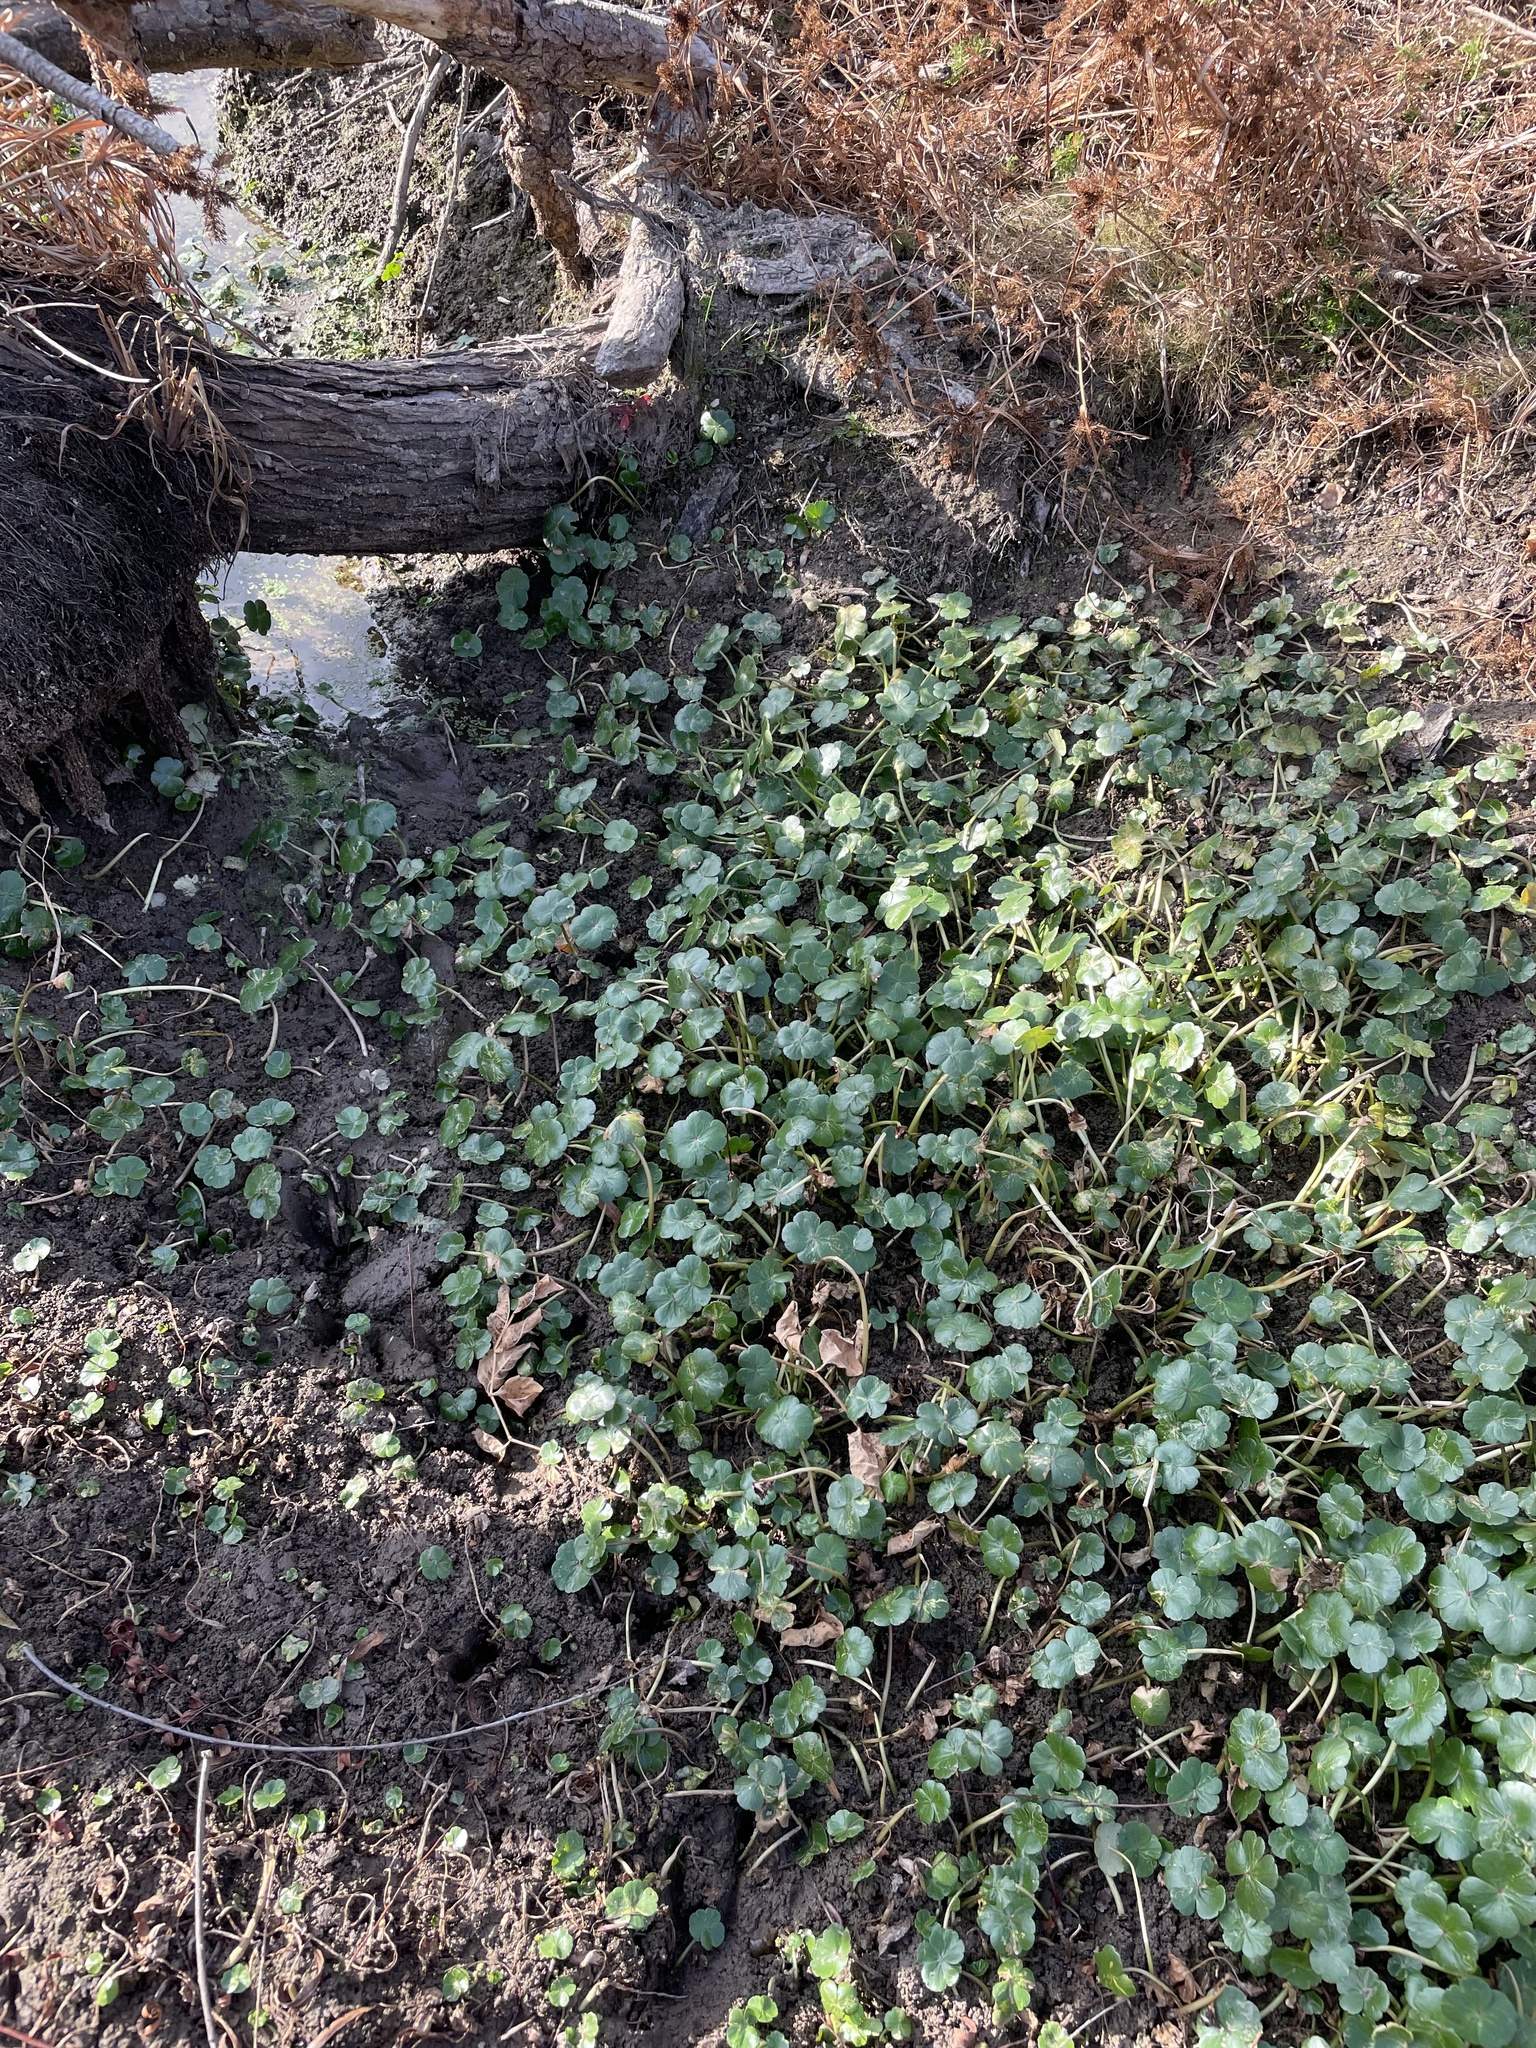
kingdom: Plantae
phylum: Tracheophyta
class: Magnoliopsida
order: Apiales
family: Araliaceae
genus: Hydrocotyle
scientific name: Hydrocotyle ranunculoides
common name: Floating pennywort
